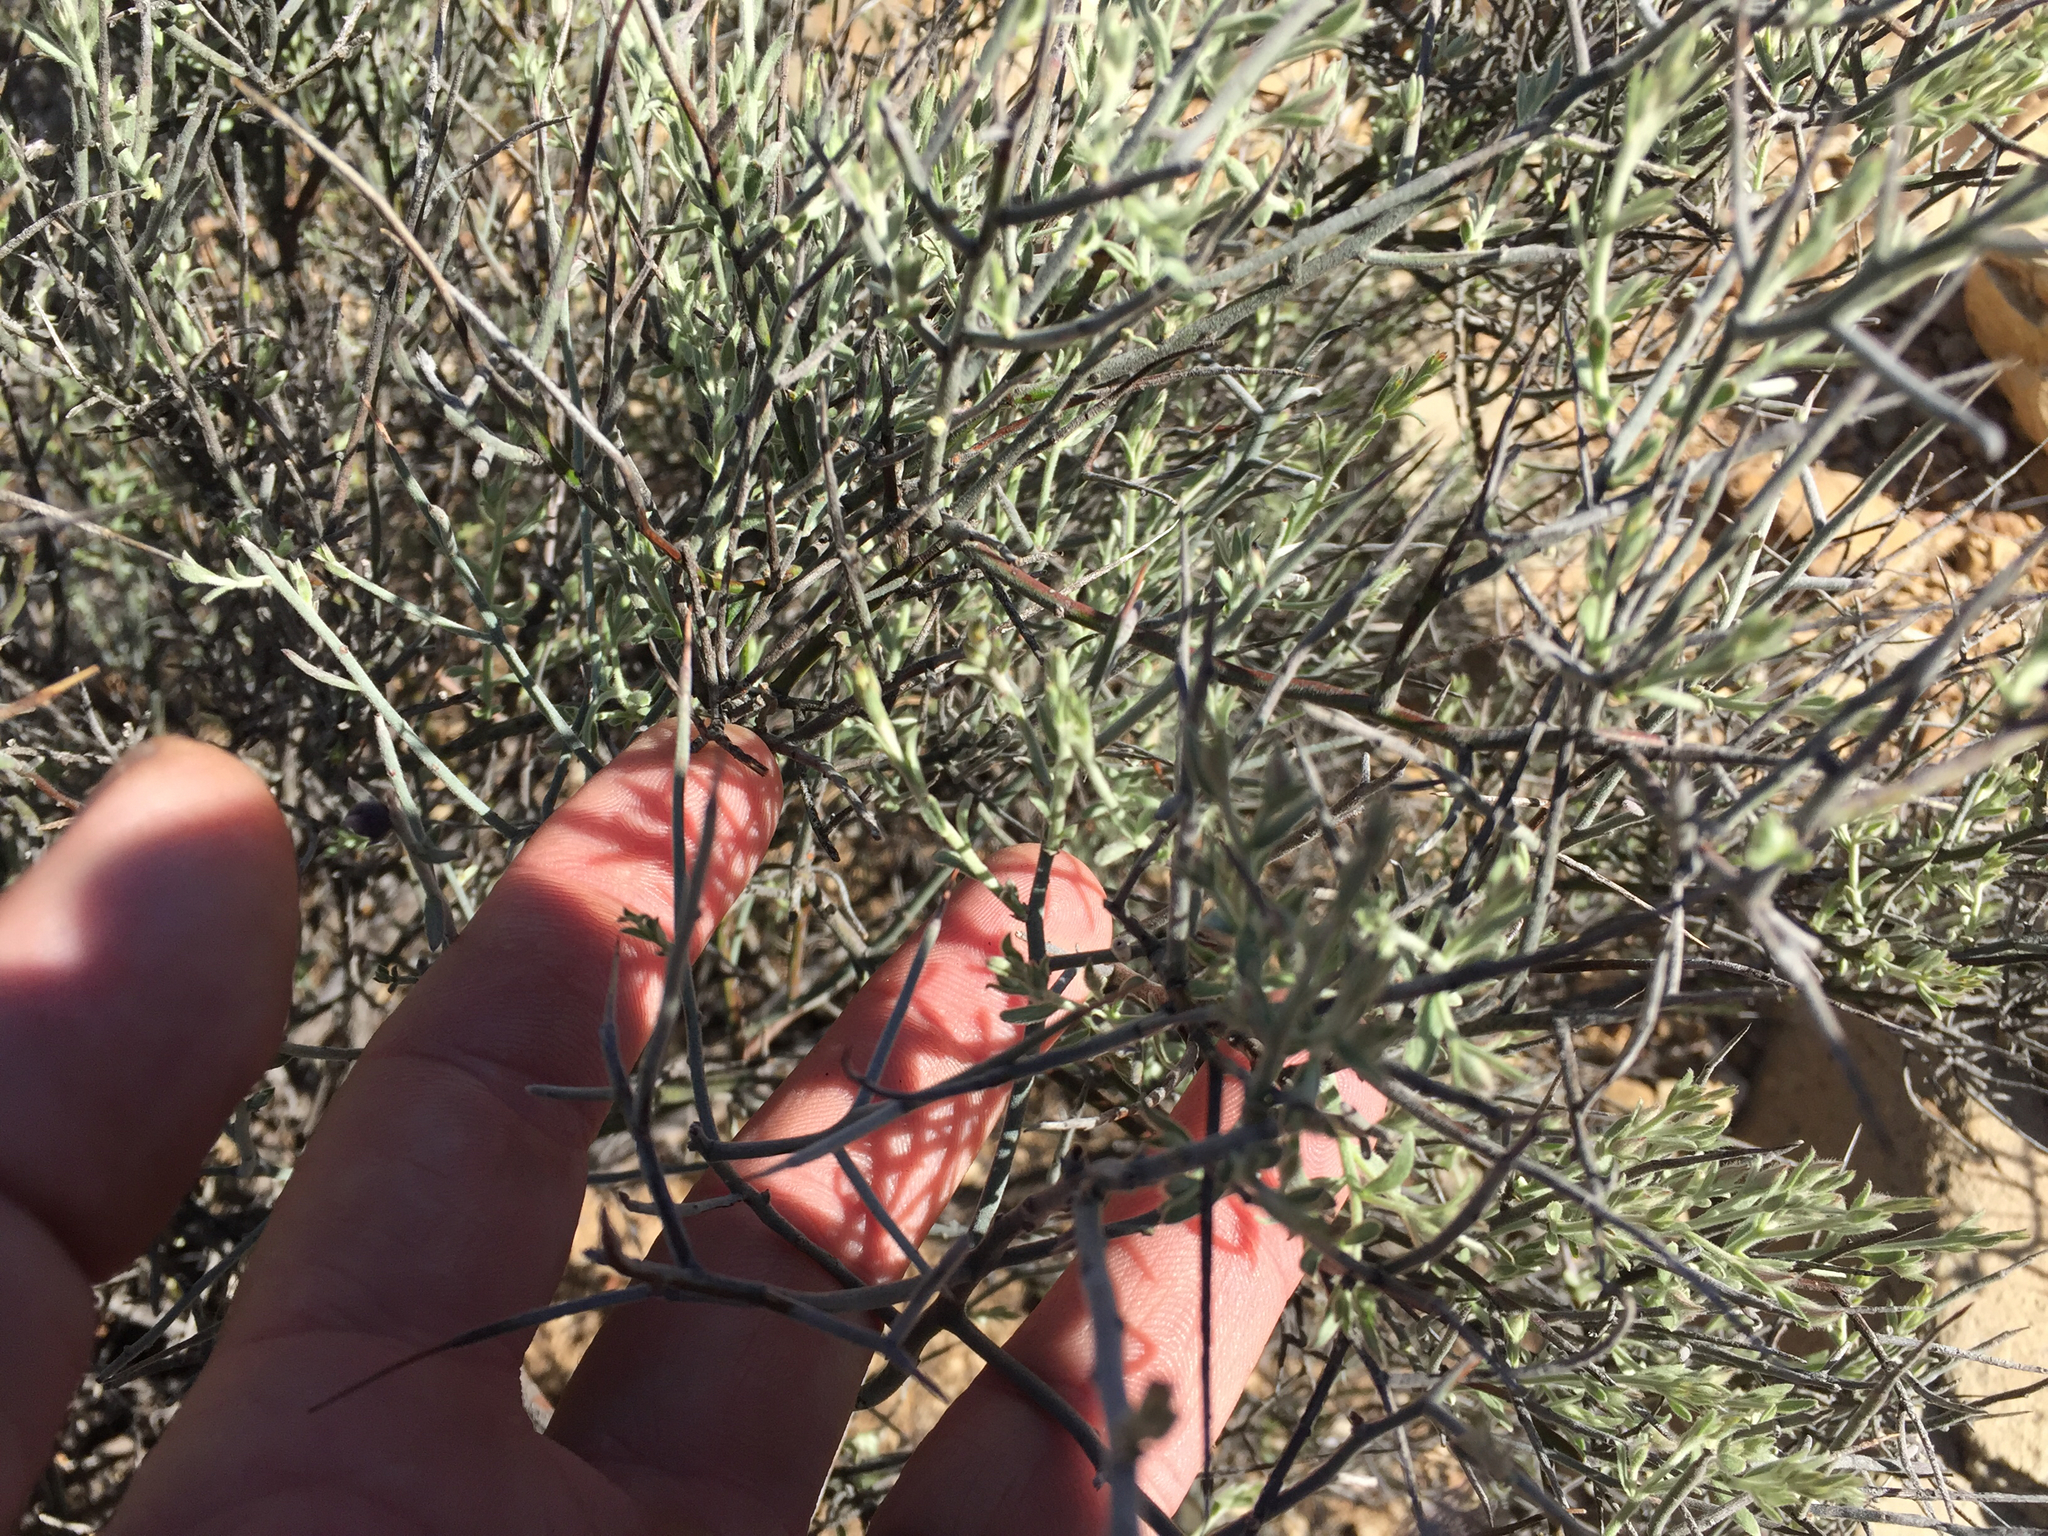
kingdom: Plantae
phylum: Tracheophyta
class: Magnoliopsida
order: Zygophyllales
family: Krameriaceae
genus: Krameria
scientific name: Krameria bicolor
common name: White ratany
